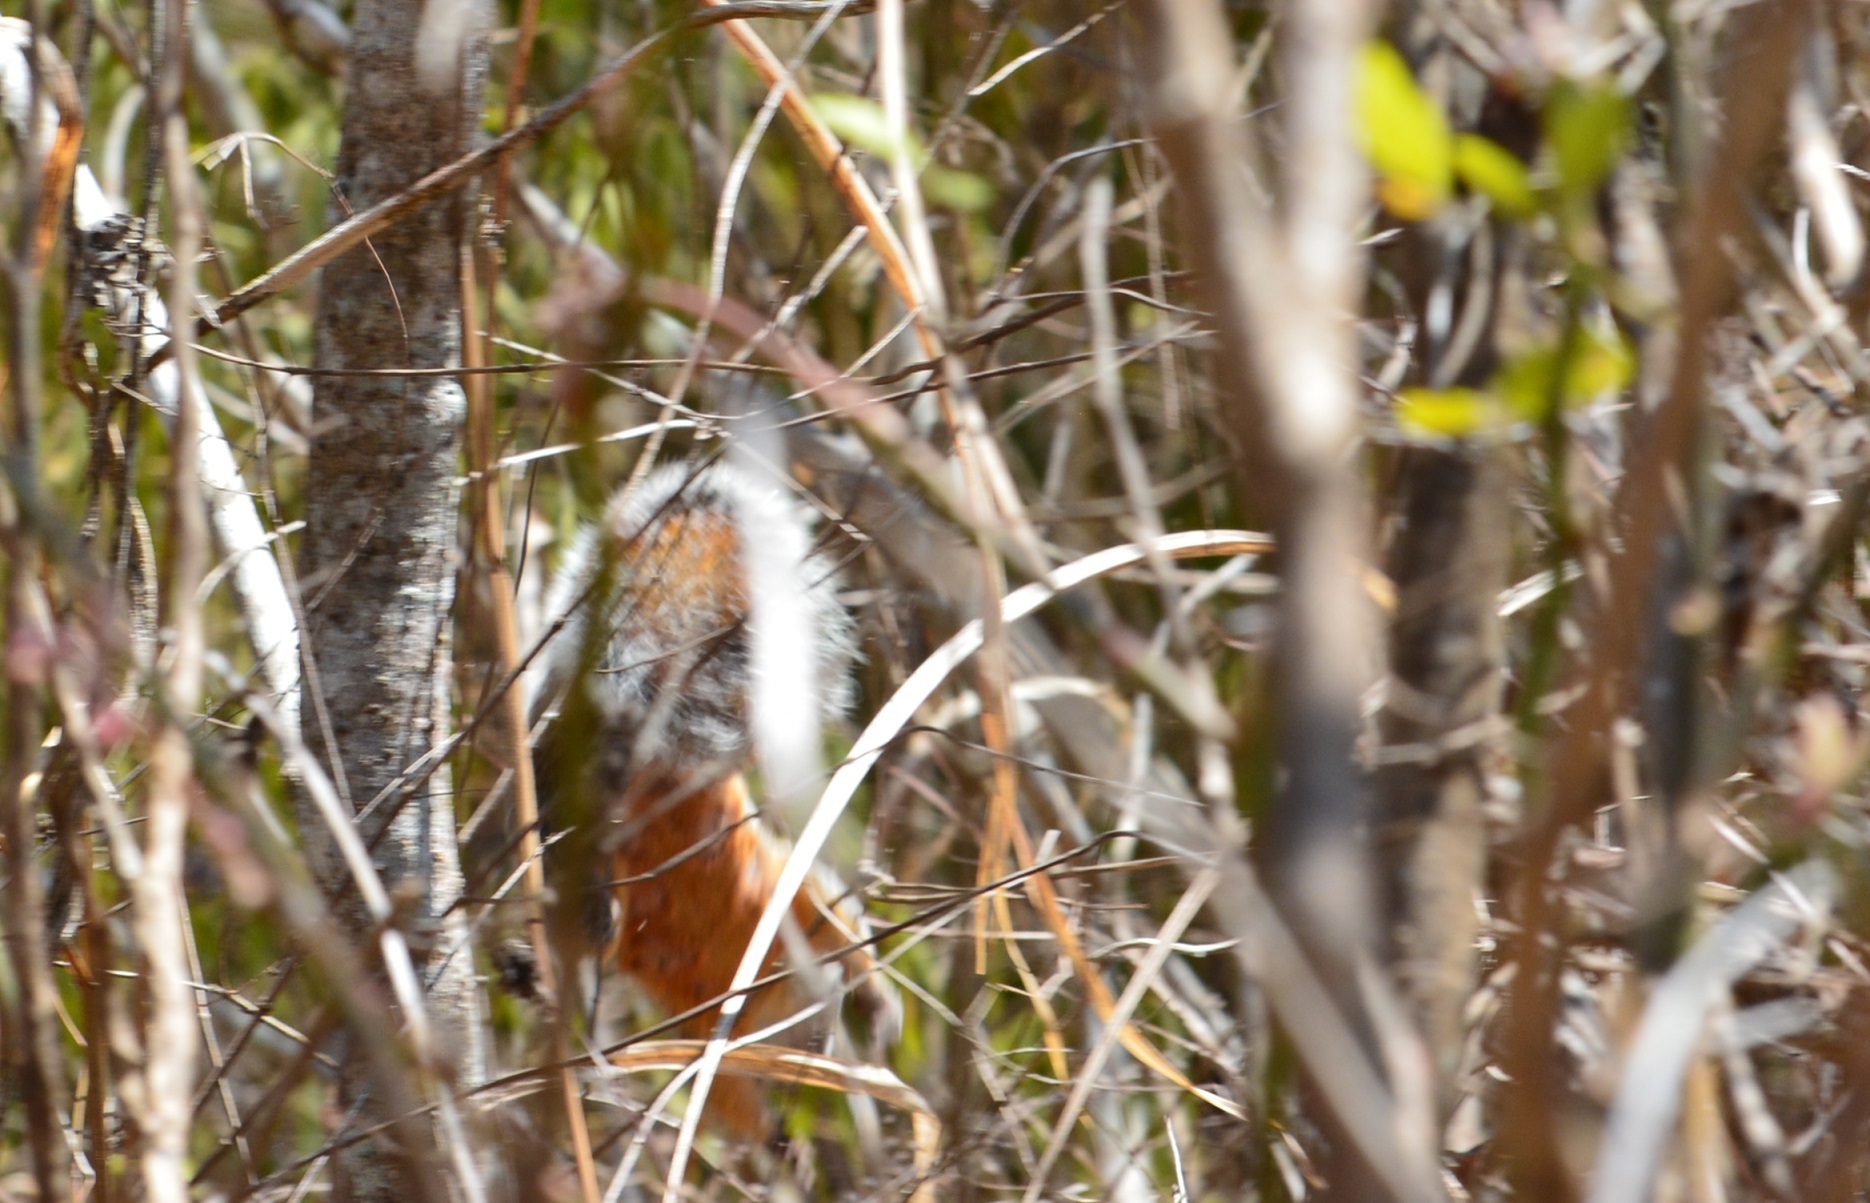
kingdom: Animalia
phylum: Chordata
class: Mammalia
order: Rodentia
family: Sciuridae
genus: Sciurus
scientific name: Sciurus aureogaster
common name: Red-bellied squirrel
